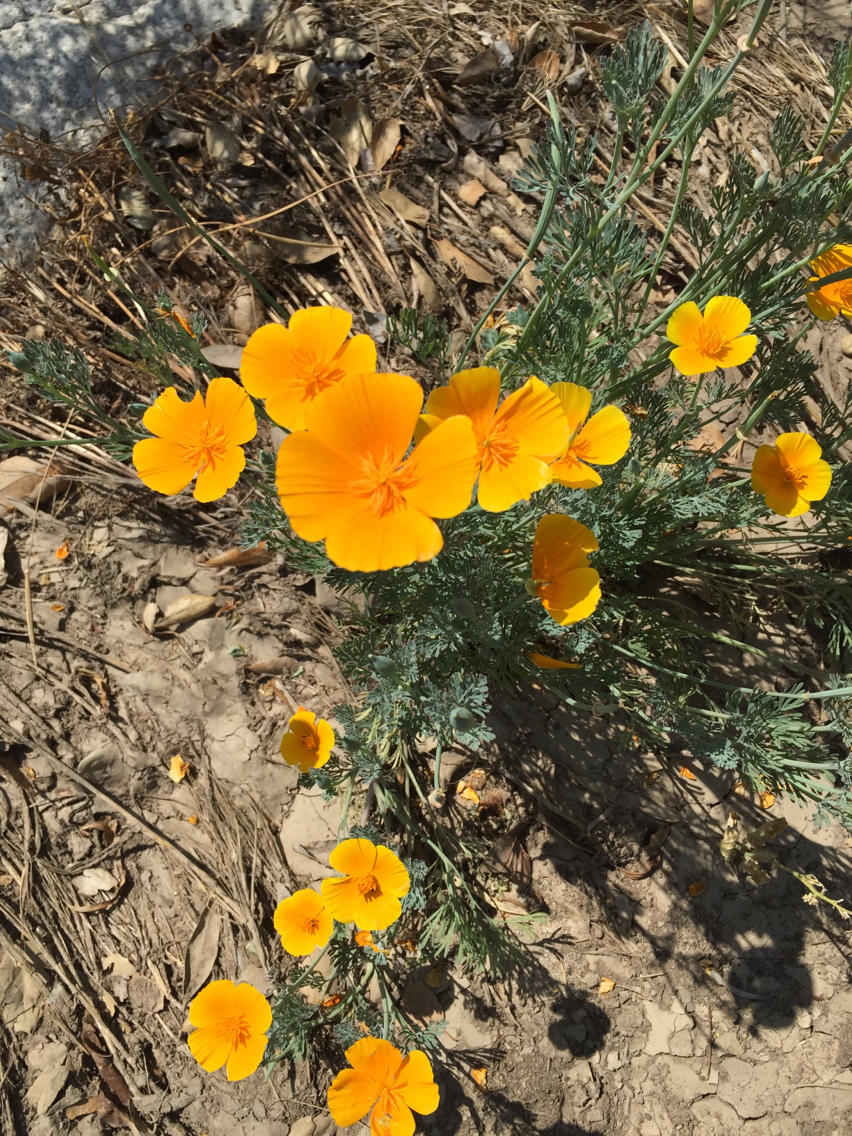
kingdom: Plantae
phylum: Tracheophyta
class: Magnoliopsida
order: Ranunculales
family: Papaveraceae
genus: Eschscholzia
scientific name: Eschscholzia californica
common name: California poppy
